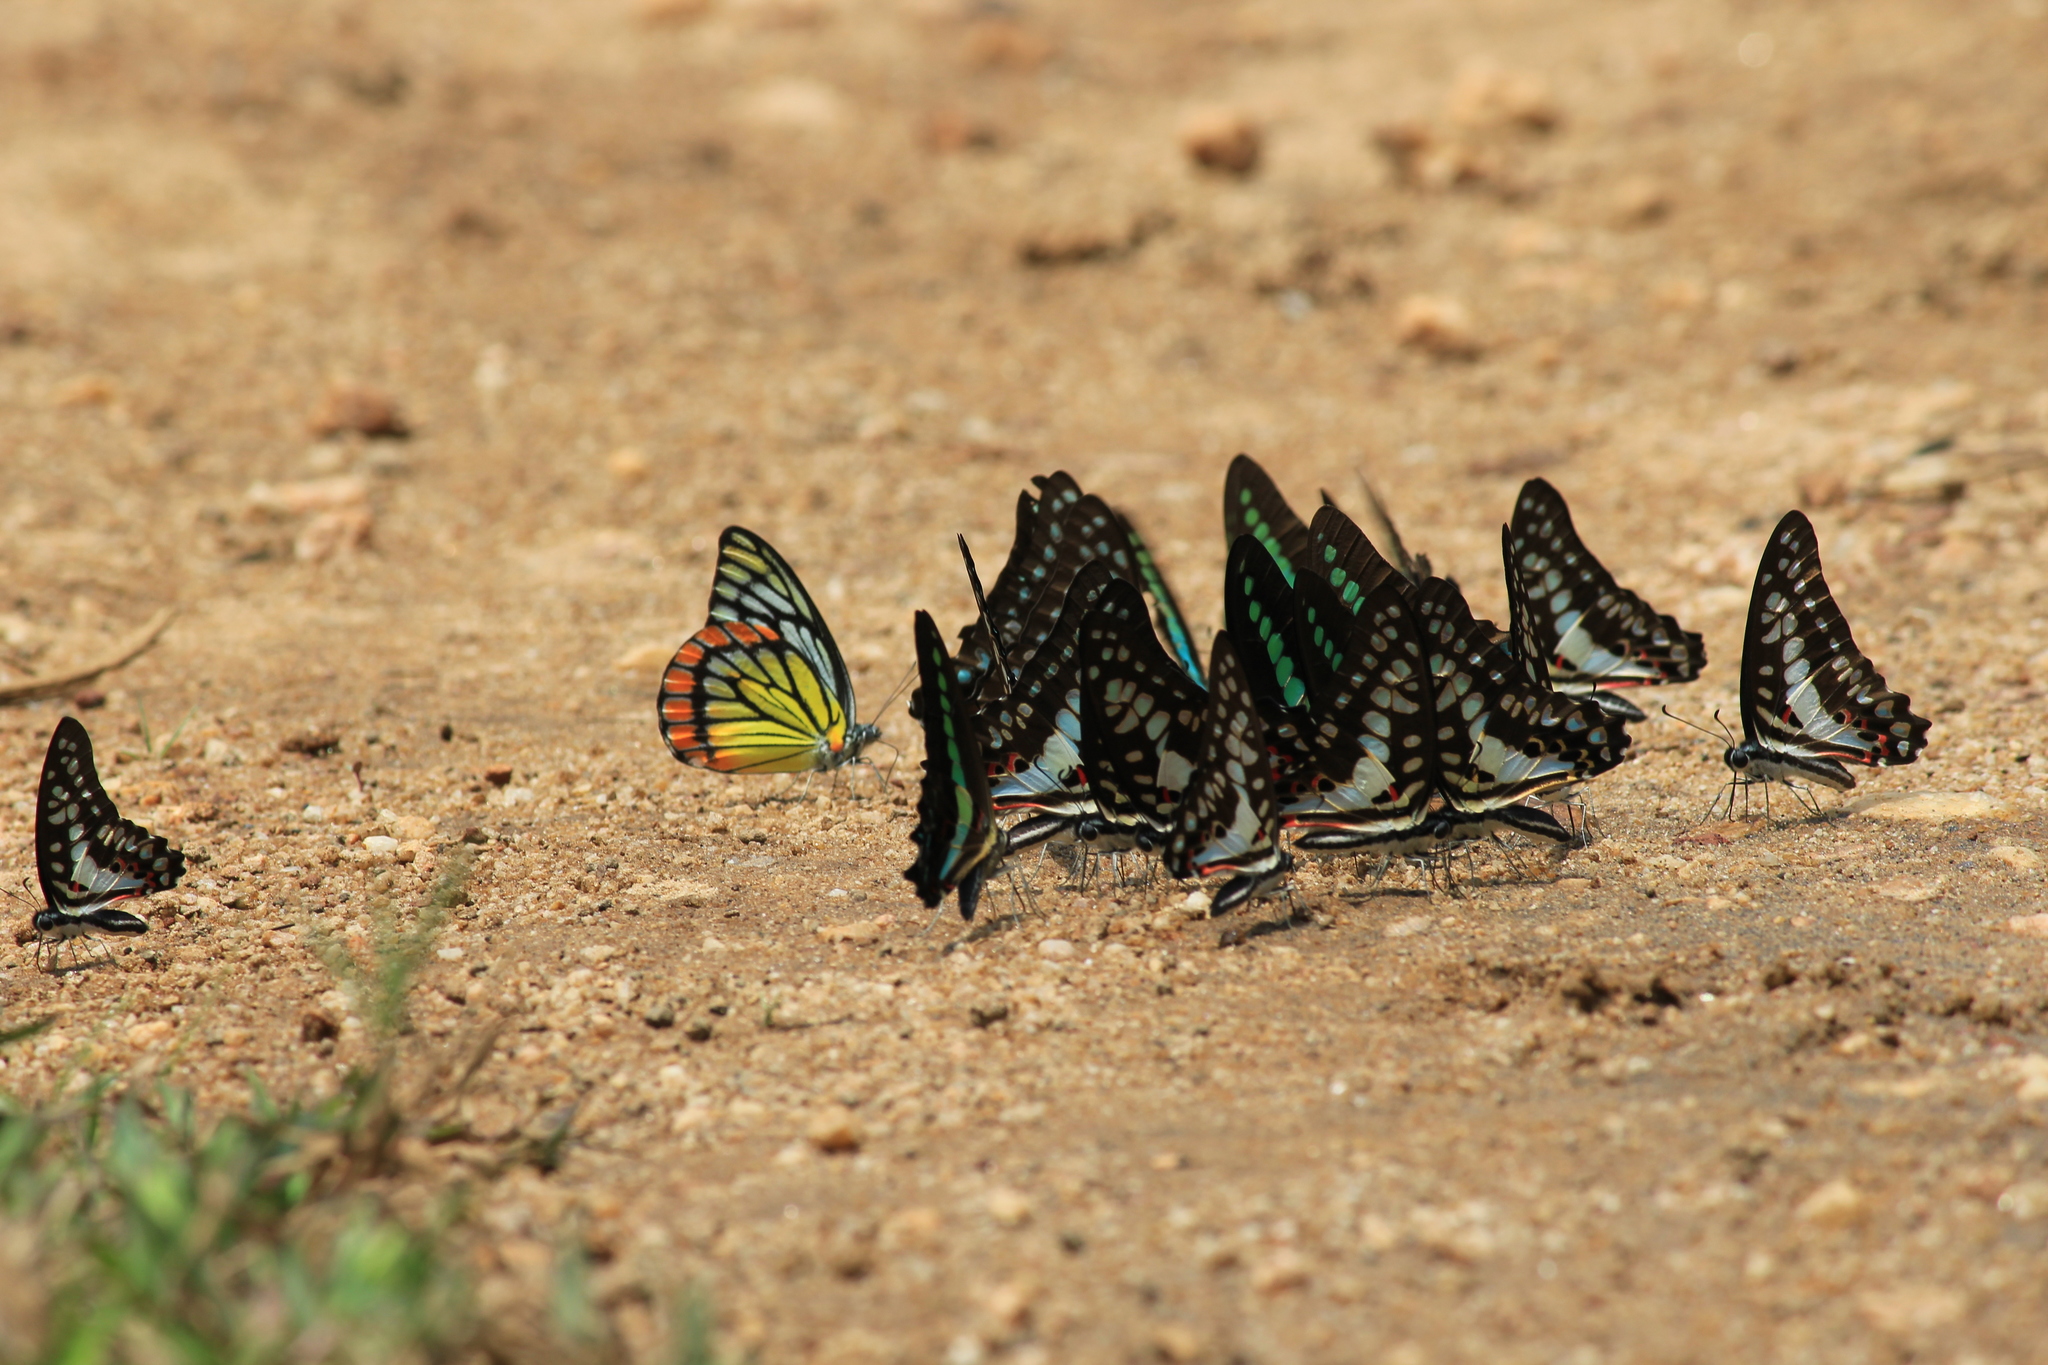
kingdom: Animalia
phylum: Arthropoda
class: Insecta
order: Lepidoptera
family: Papilionidae
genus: Graphium
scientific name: Graphium doson
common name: Common jay
